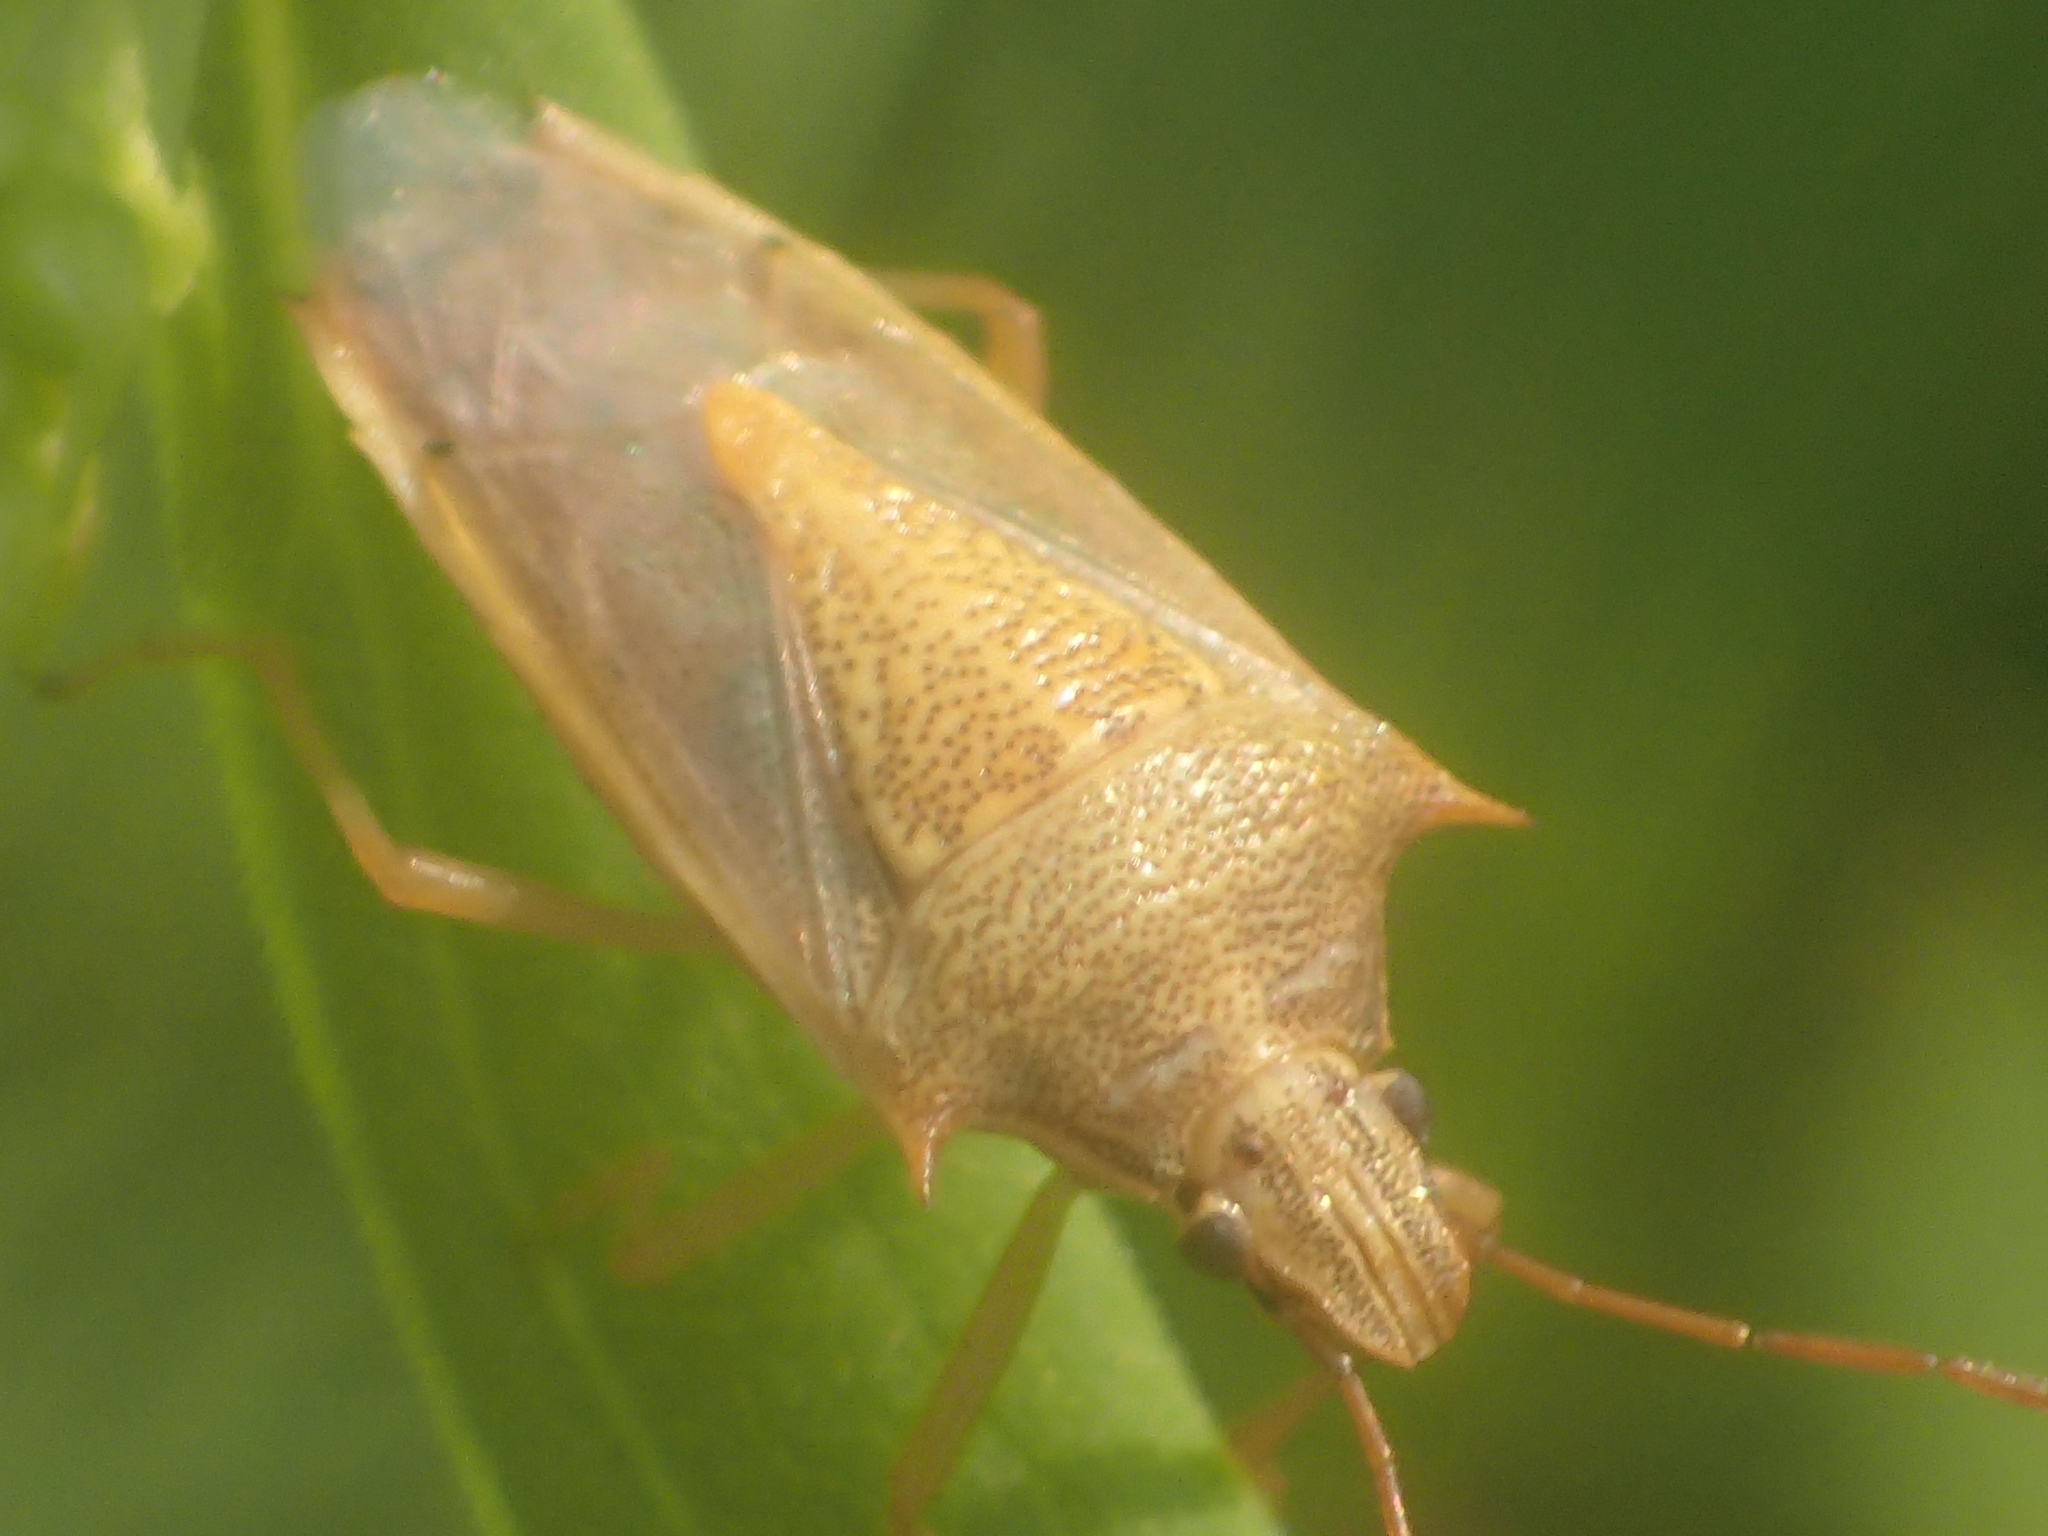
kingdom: Animalia
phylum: Arthropoda
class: Insecta
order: Hemiptera
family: Pentatomidae
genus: Oebalus
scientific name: Oebalus pugnax
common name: Rice stink bug
